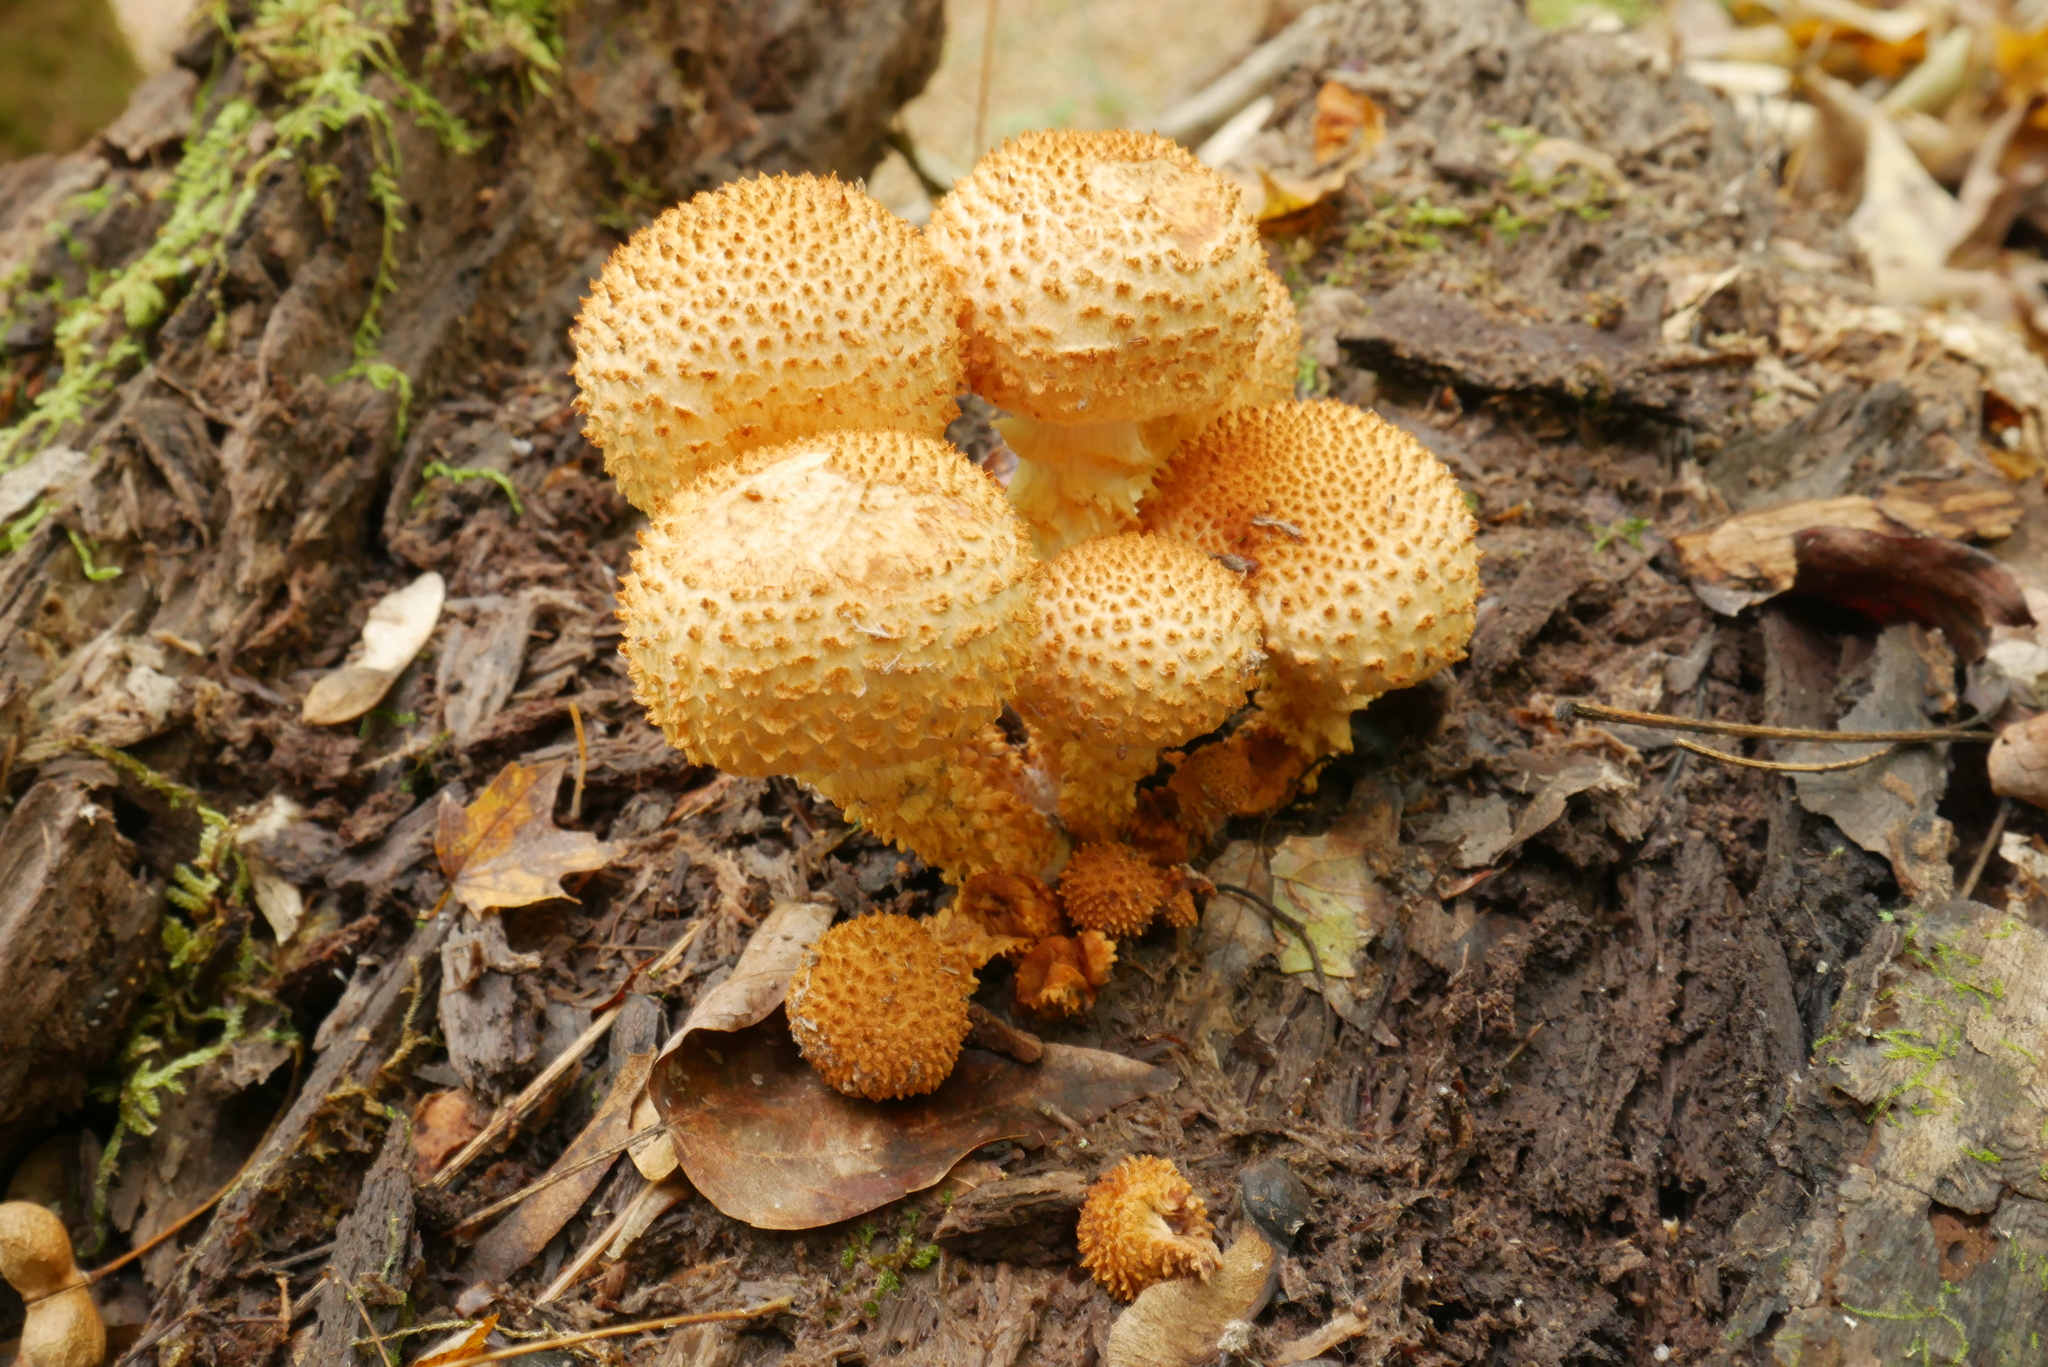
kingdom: Fungi
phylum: Basidiomycota
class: Agaricomycetes
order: Agaricales
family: Strophariaceae
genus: Pholiota
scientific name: Pholiota squarrosoides
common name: Sharp-scaly pholiota
